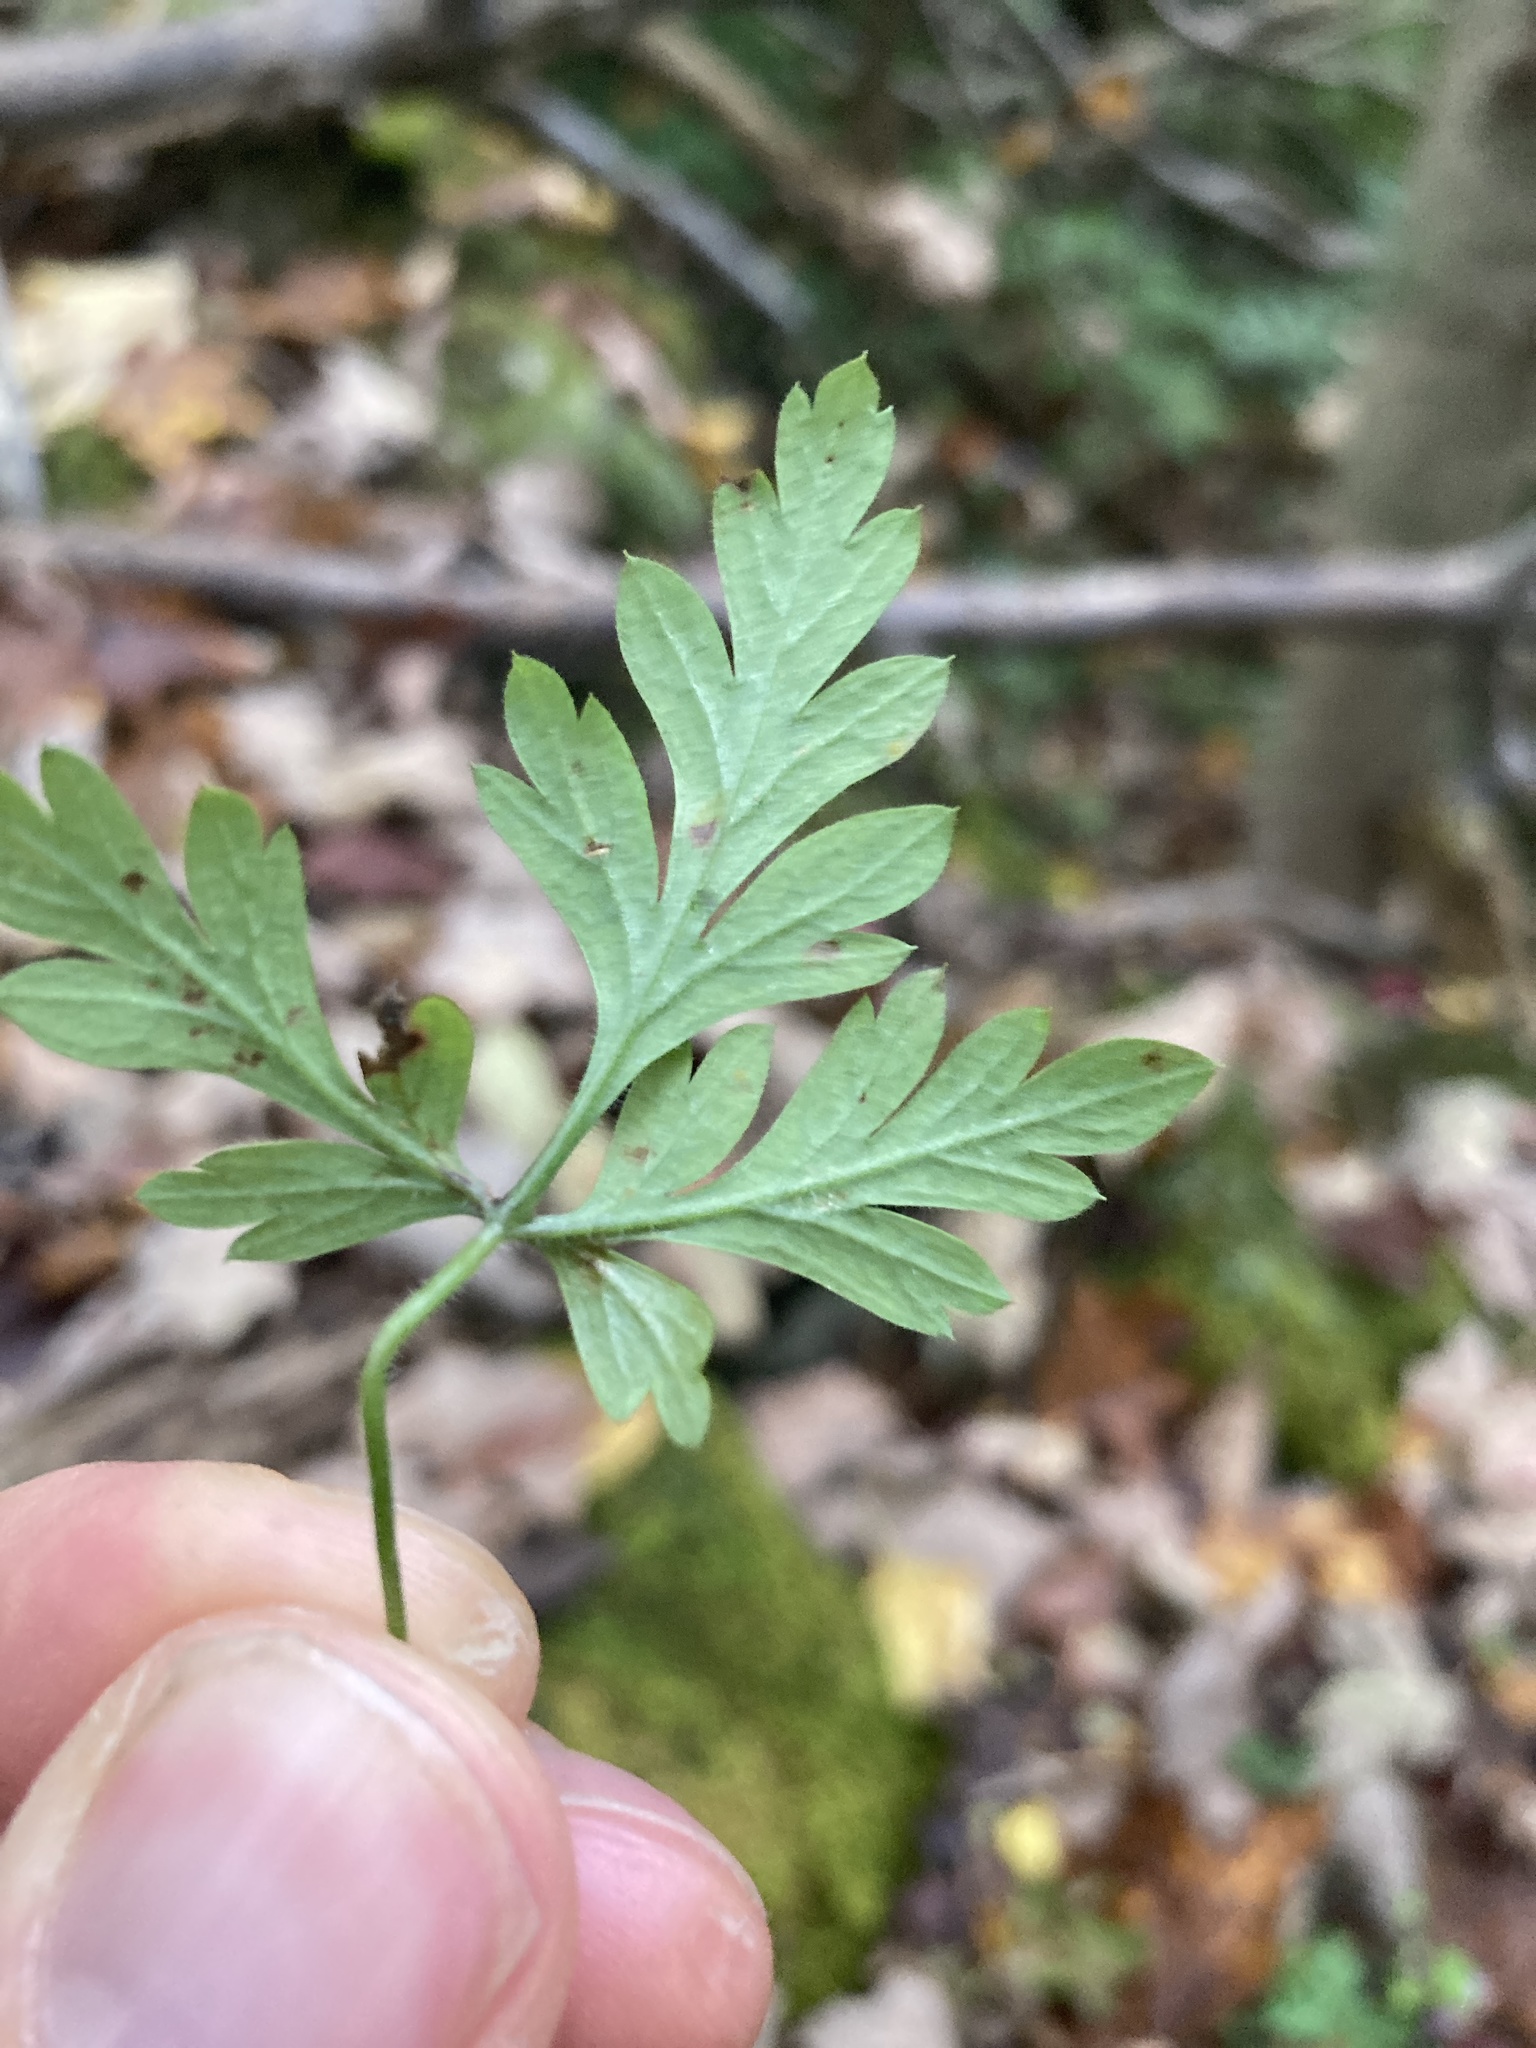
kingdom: Plantae
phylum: Tracheophyta
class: Magnoliopsida
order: Geraniales
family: Geraniaceae
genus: Geranium
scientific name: Geranium robertianum
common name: Herb-robert
